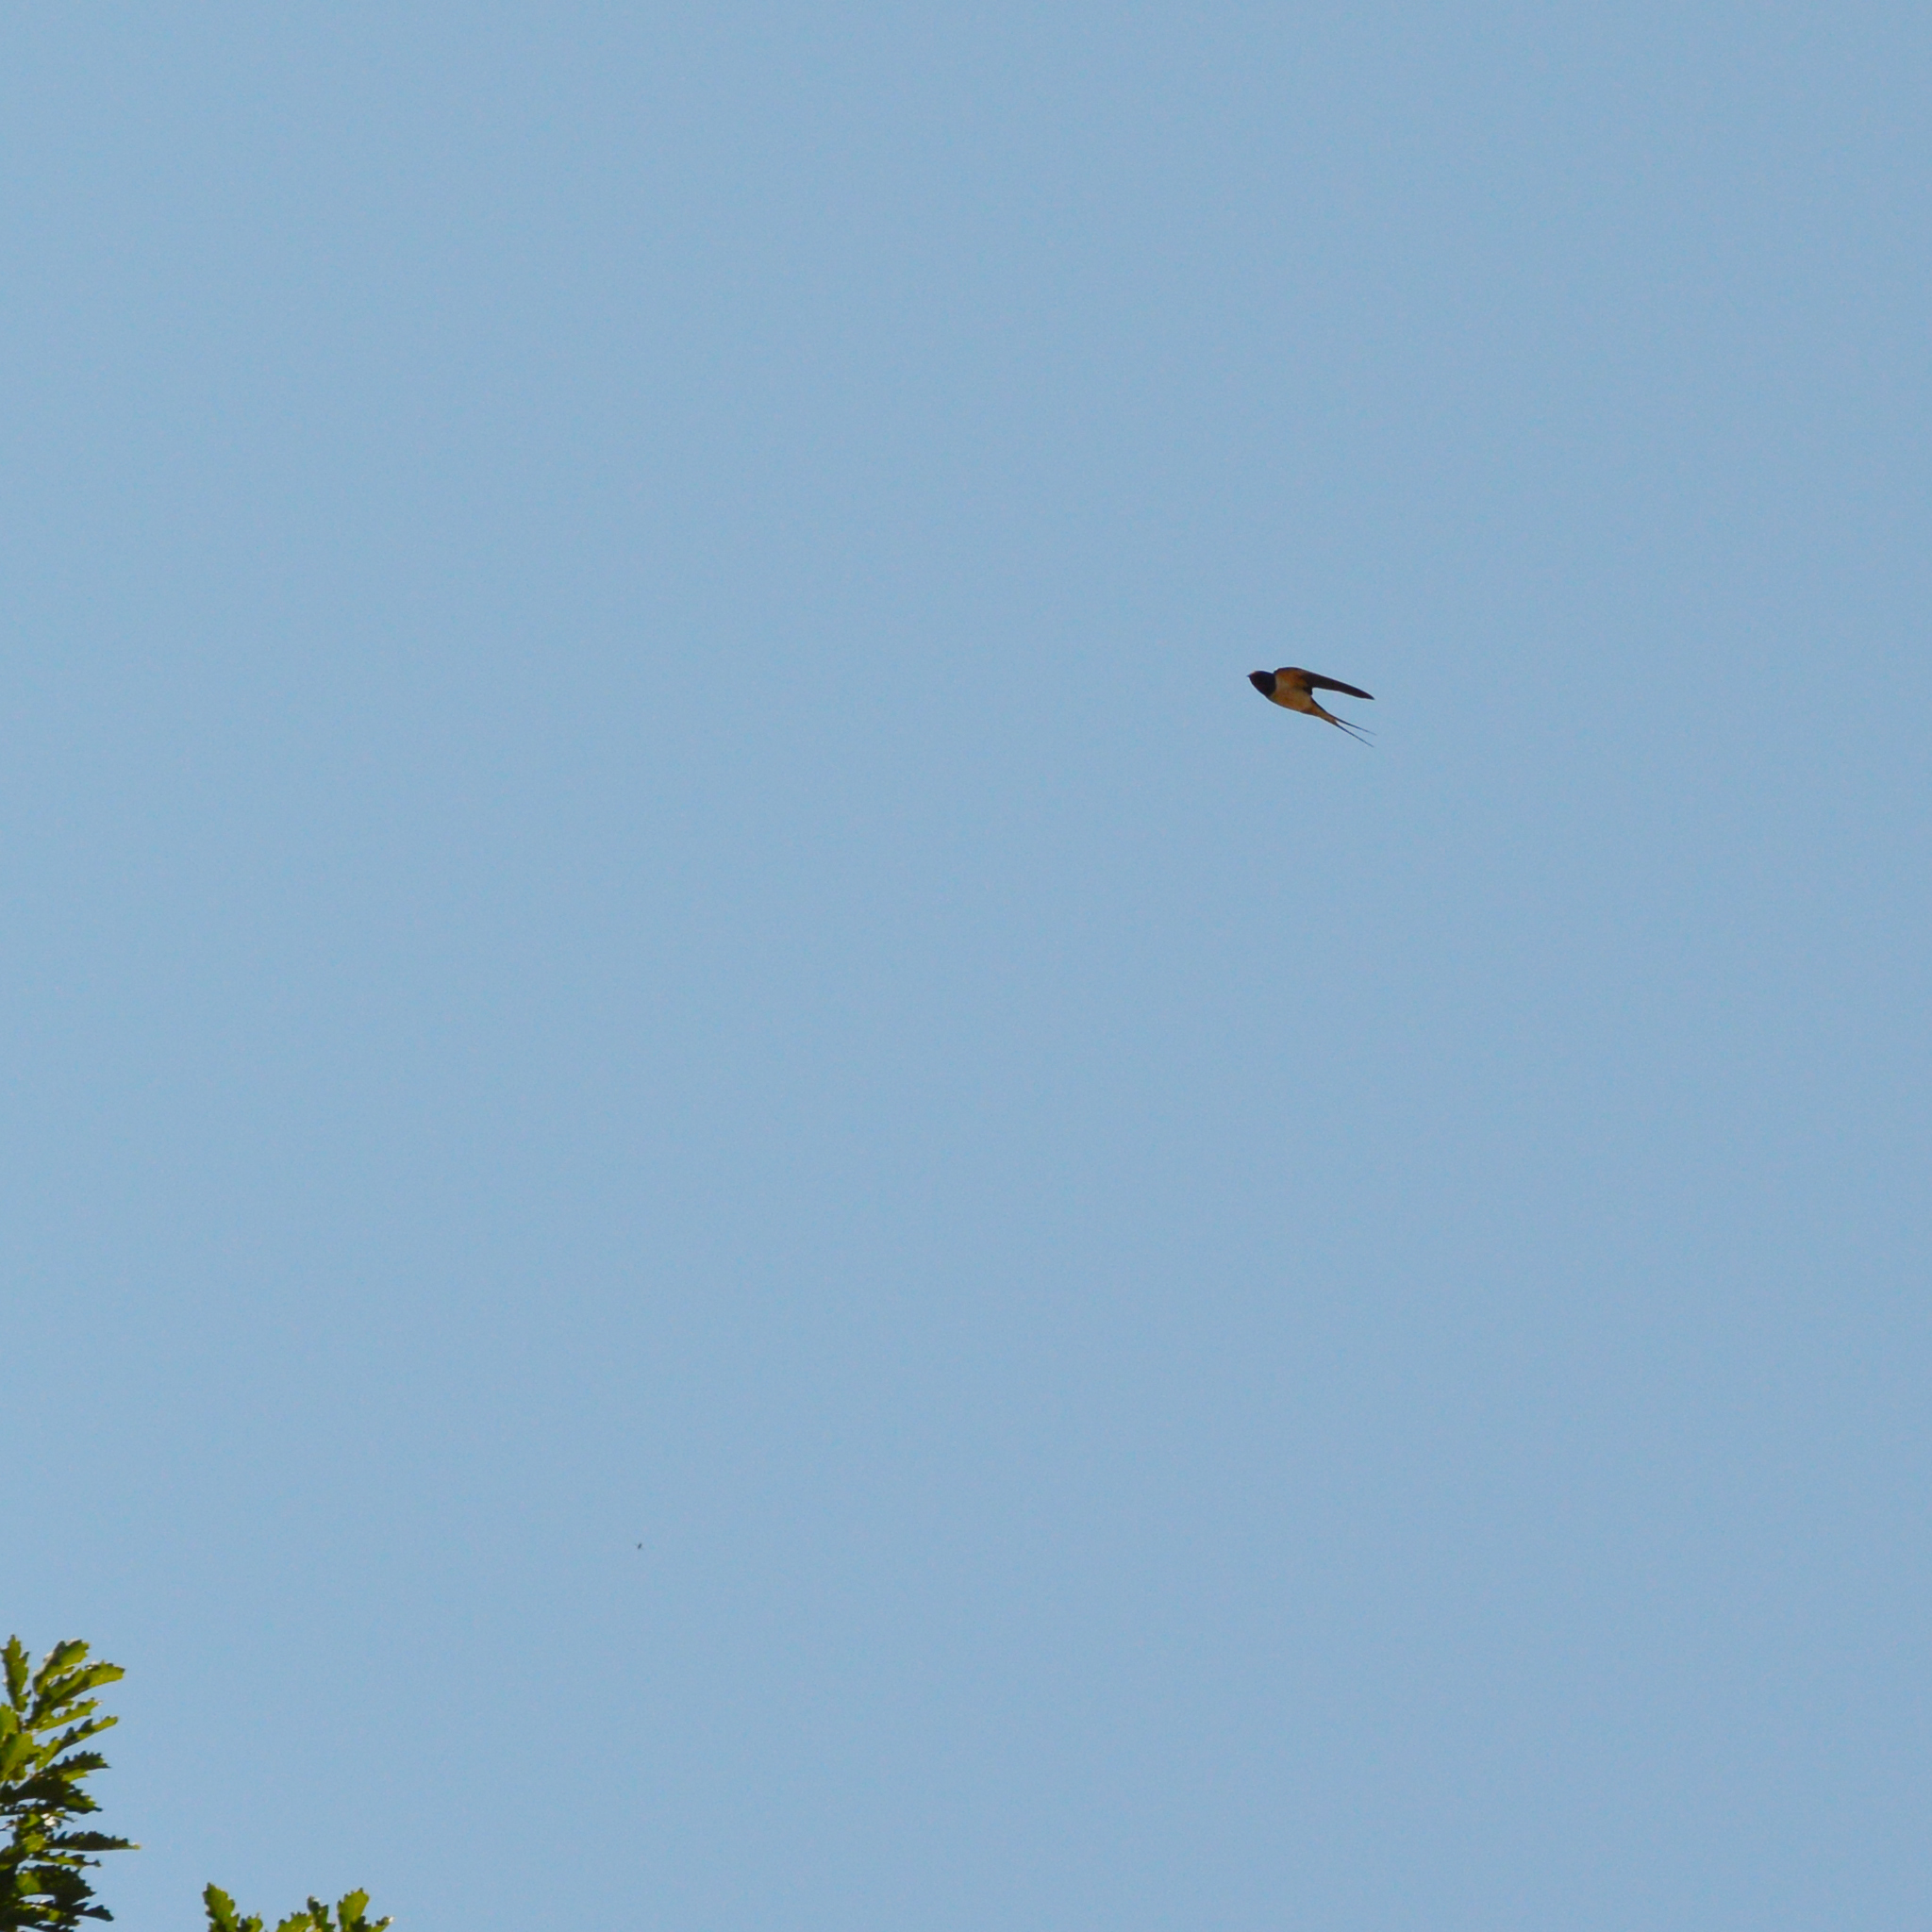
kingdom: Animalia
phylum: Chordata
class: Aves
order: Passeriformes
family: Hirundinidae
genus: Hirundo
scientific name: Hirundo rustica
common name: Barn swallow
